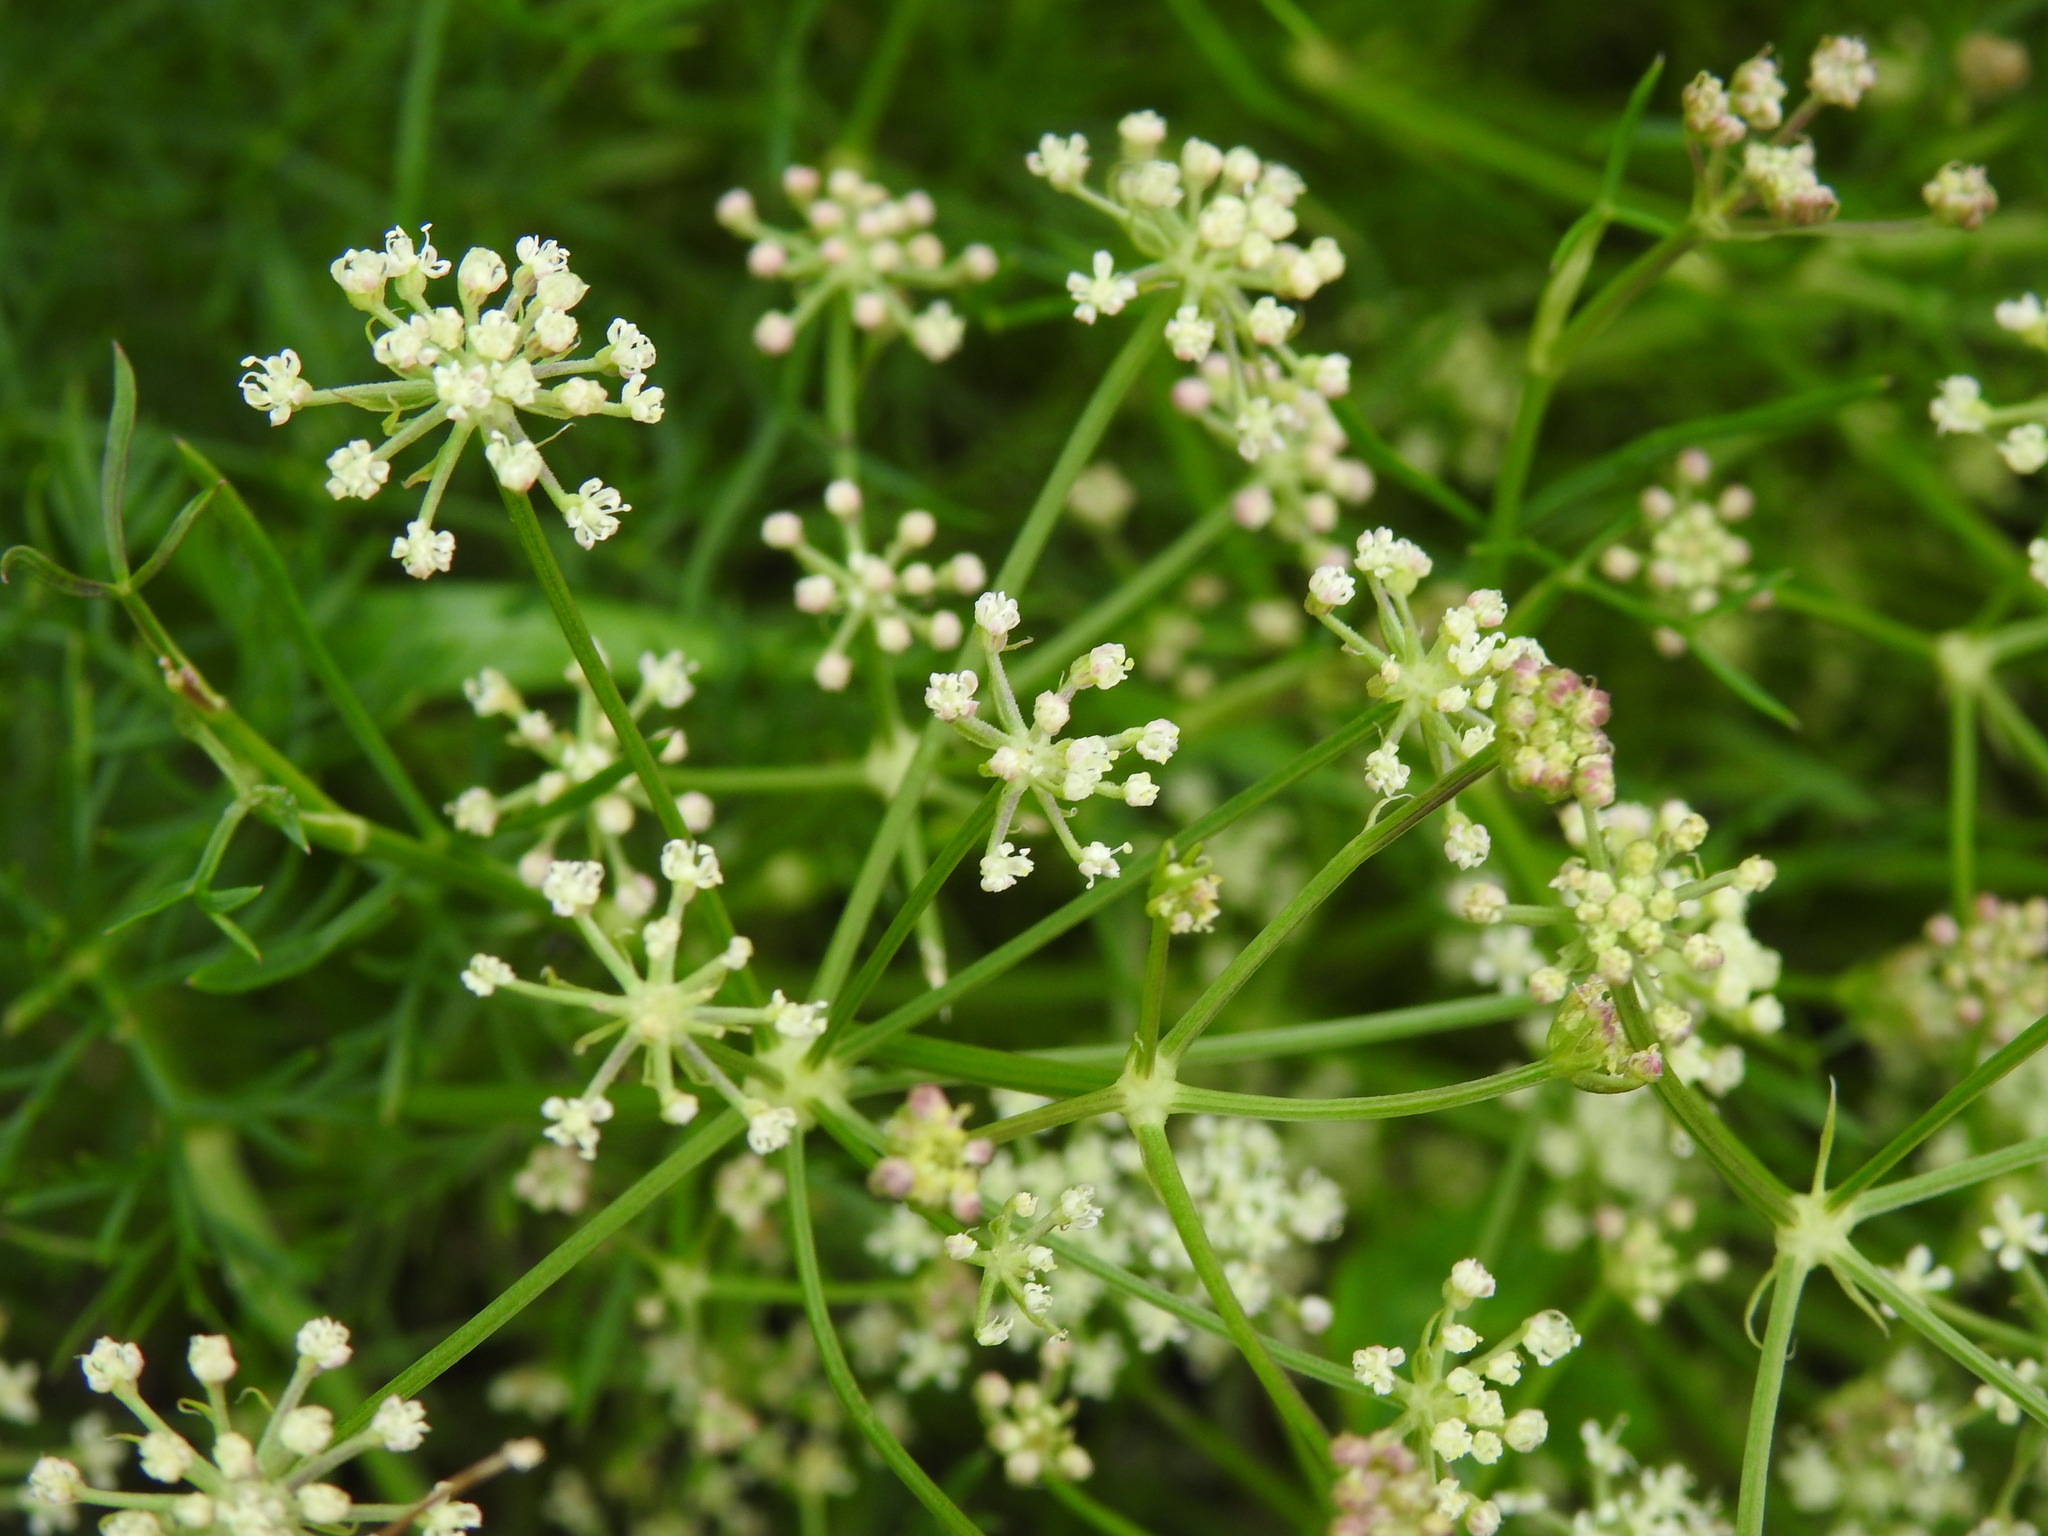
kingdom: Plantae
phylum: Tracheophyta
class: Magnoliopsida
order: Apiales
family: Apiaceae
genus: Seseli
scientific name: Seseli tortuosum
